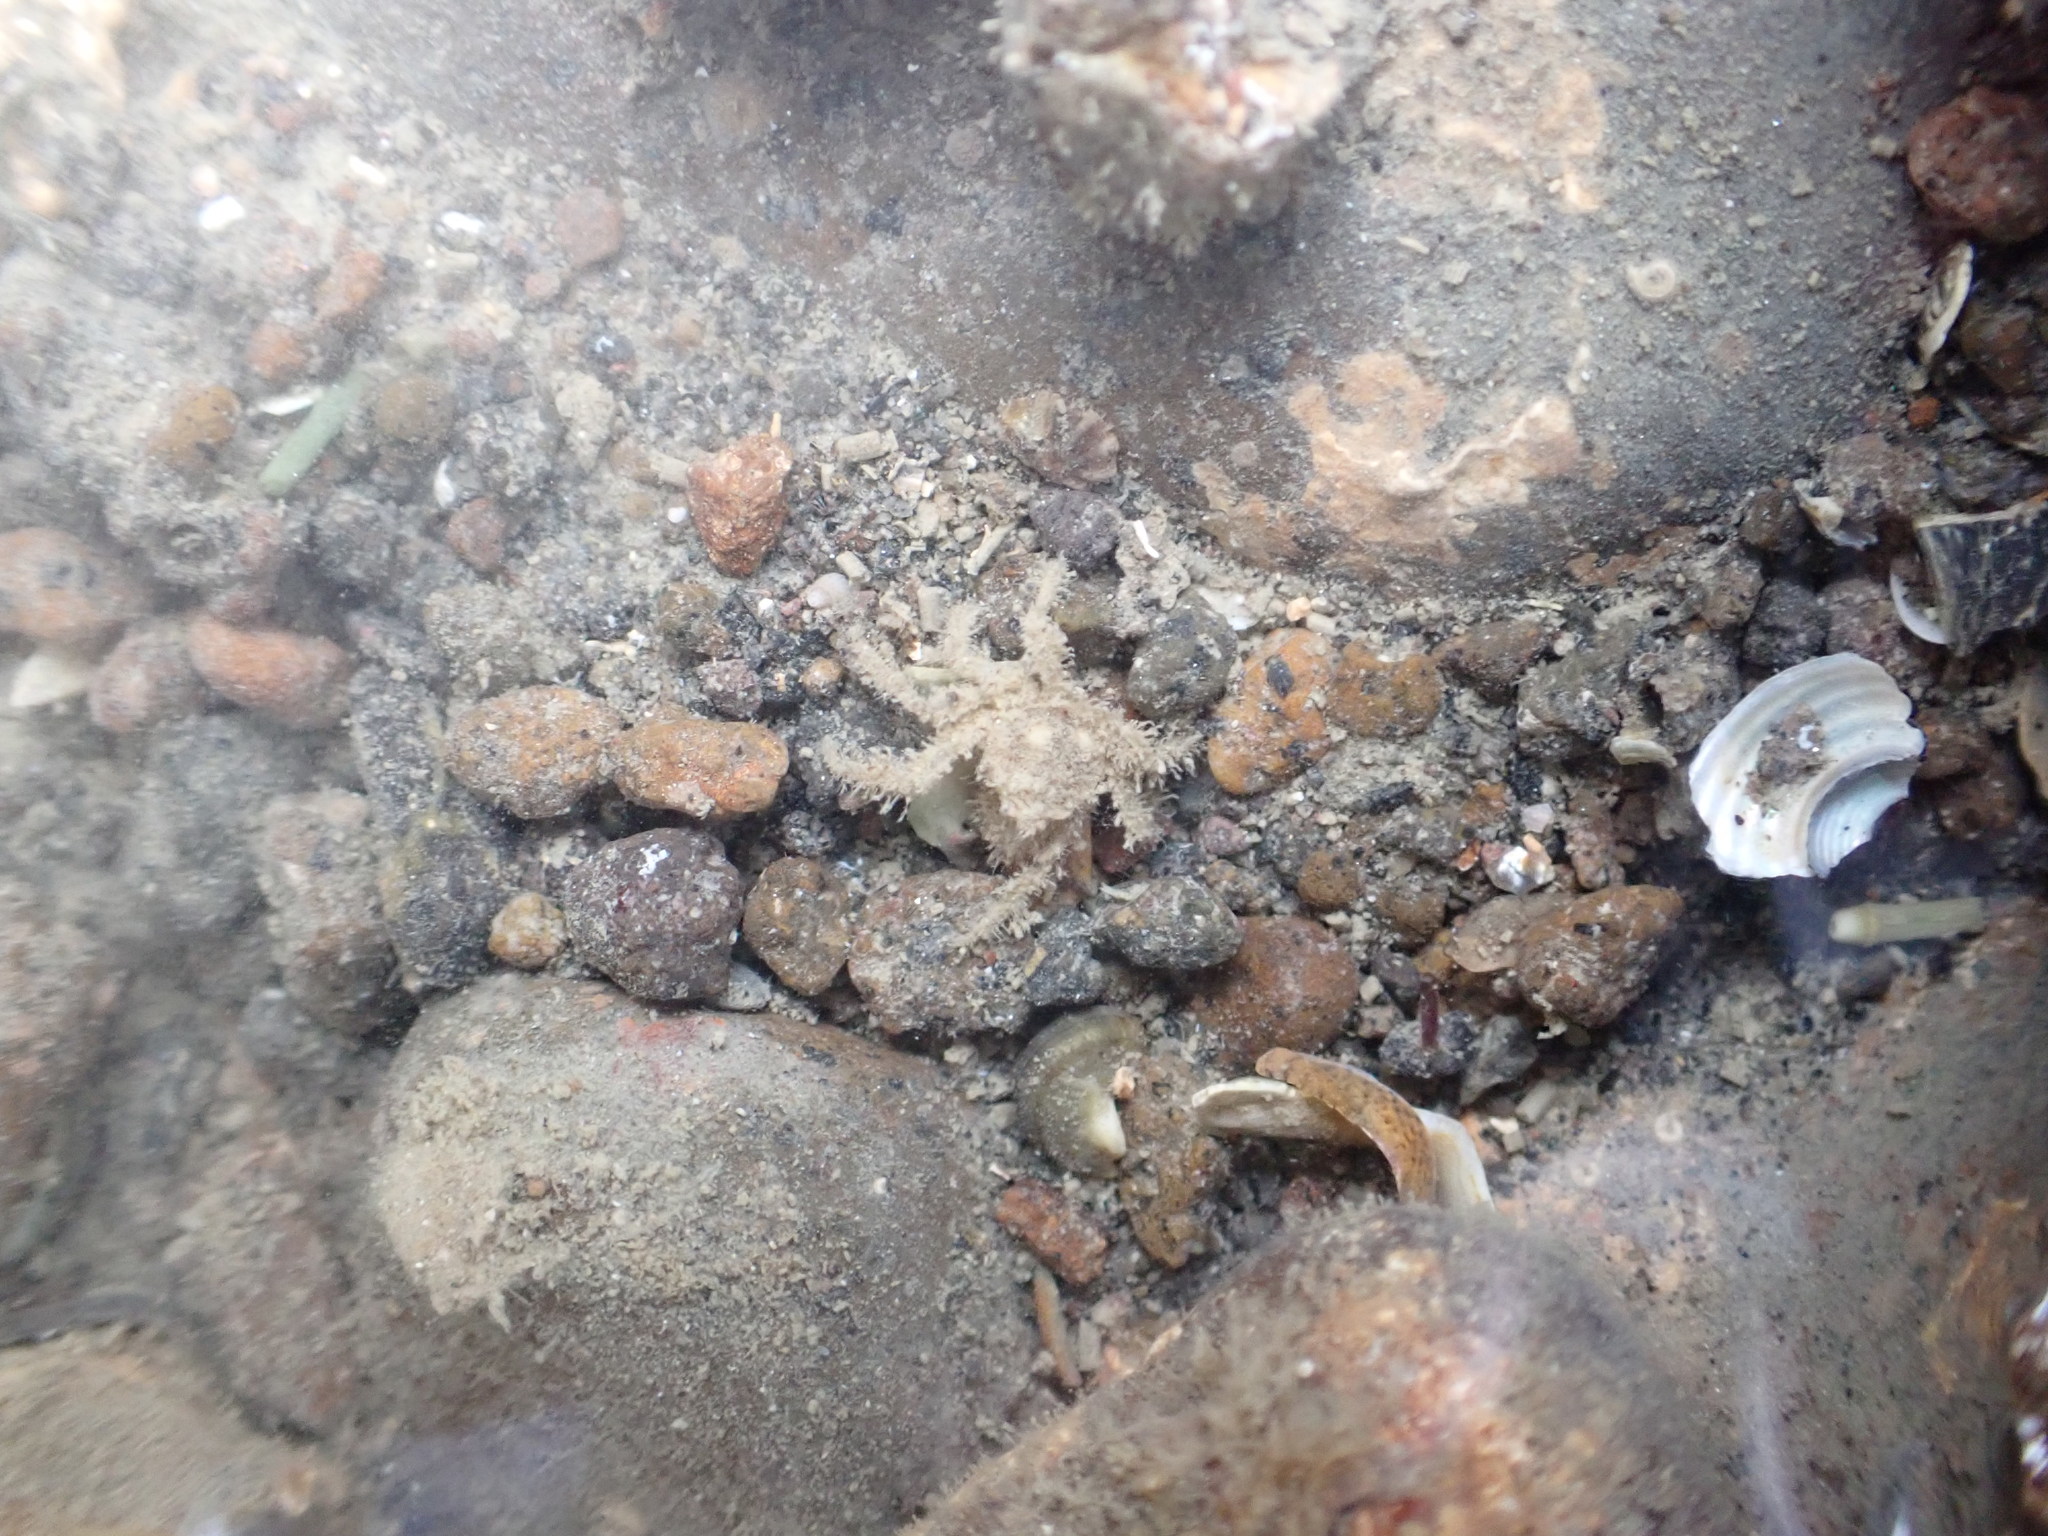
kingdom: Animalia
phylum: Arthropoda
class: Malacostraca
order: Decapoda
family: Hymenosomatidae
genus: Neohymenicus
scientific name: Neohymenicus pubescens
